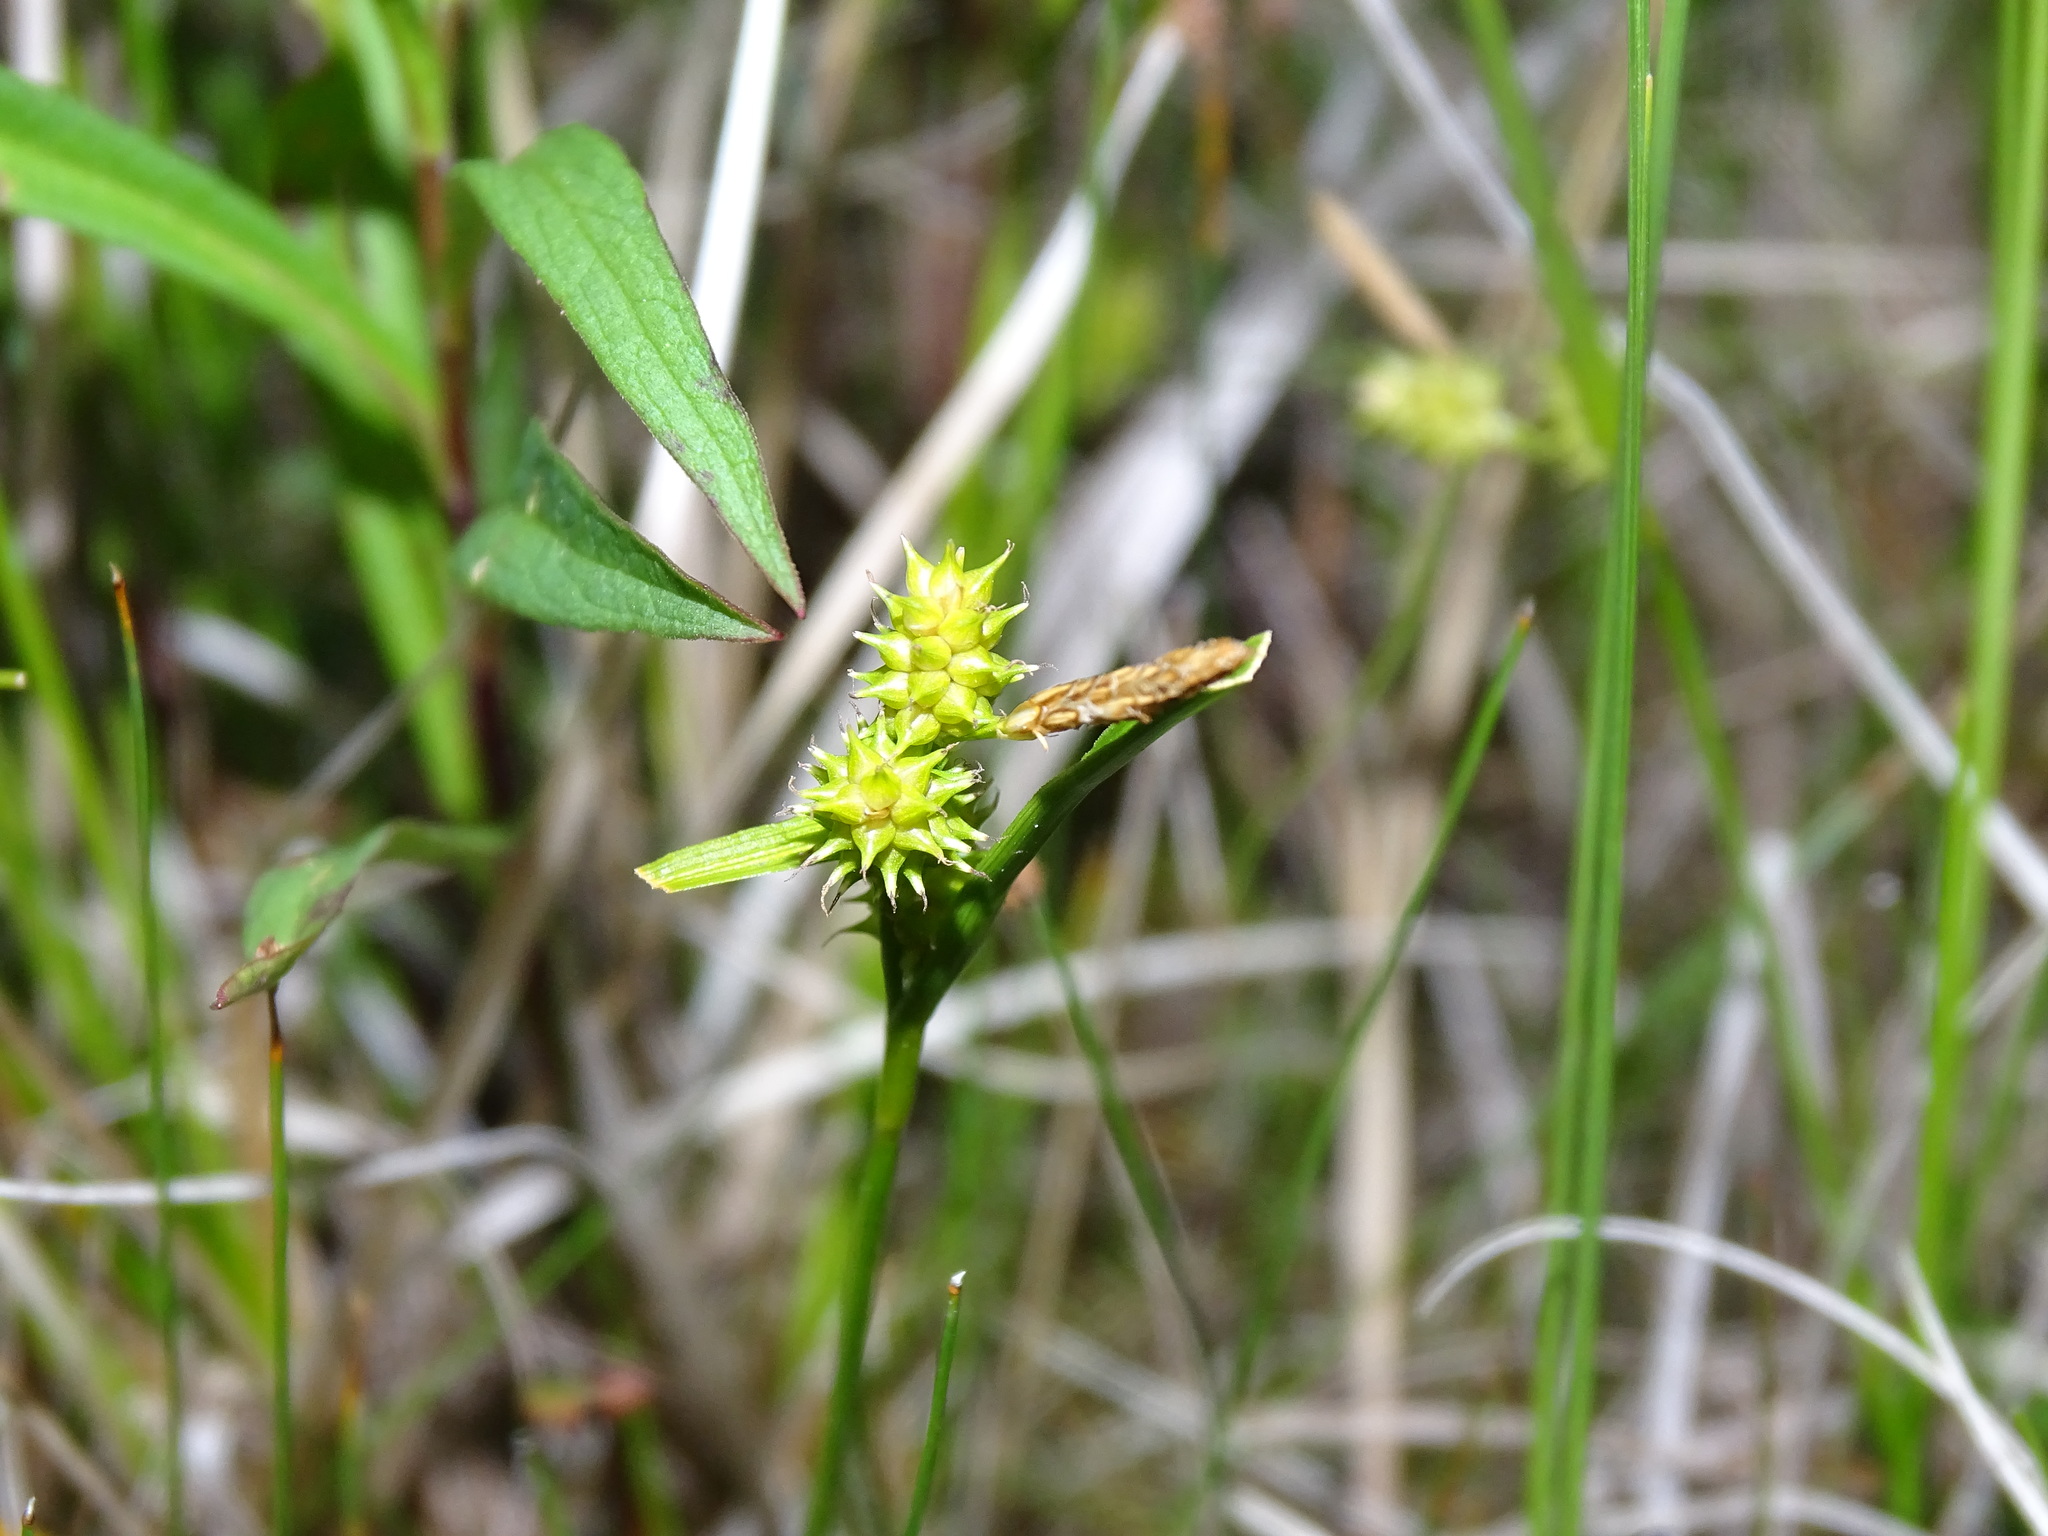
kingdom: Plantae
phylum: Tracheophyta
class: Liliopsida
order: Poales
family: Cyperaceae
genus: Carex
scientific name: Carex
